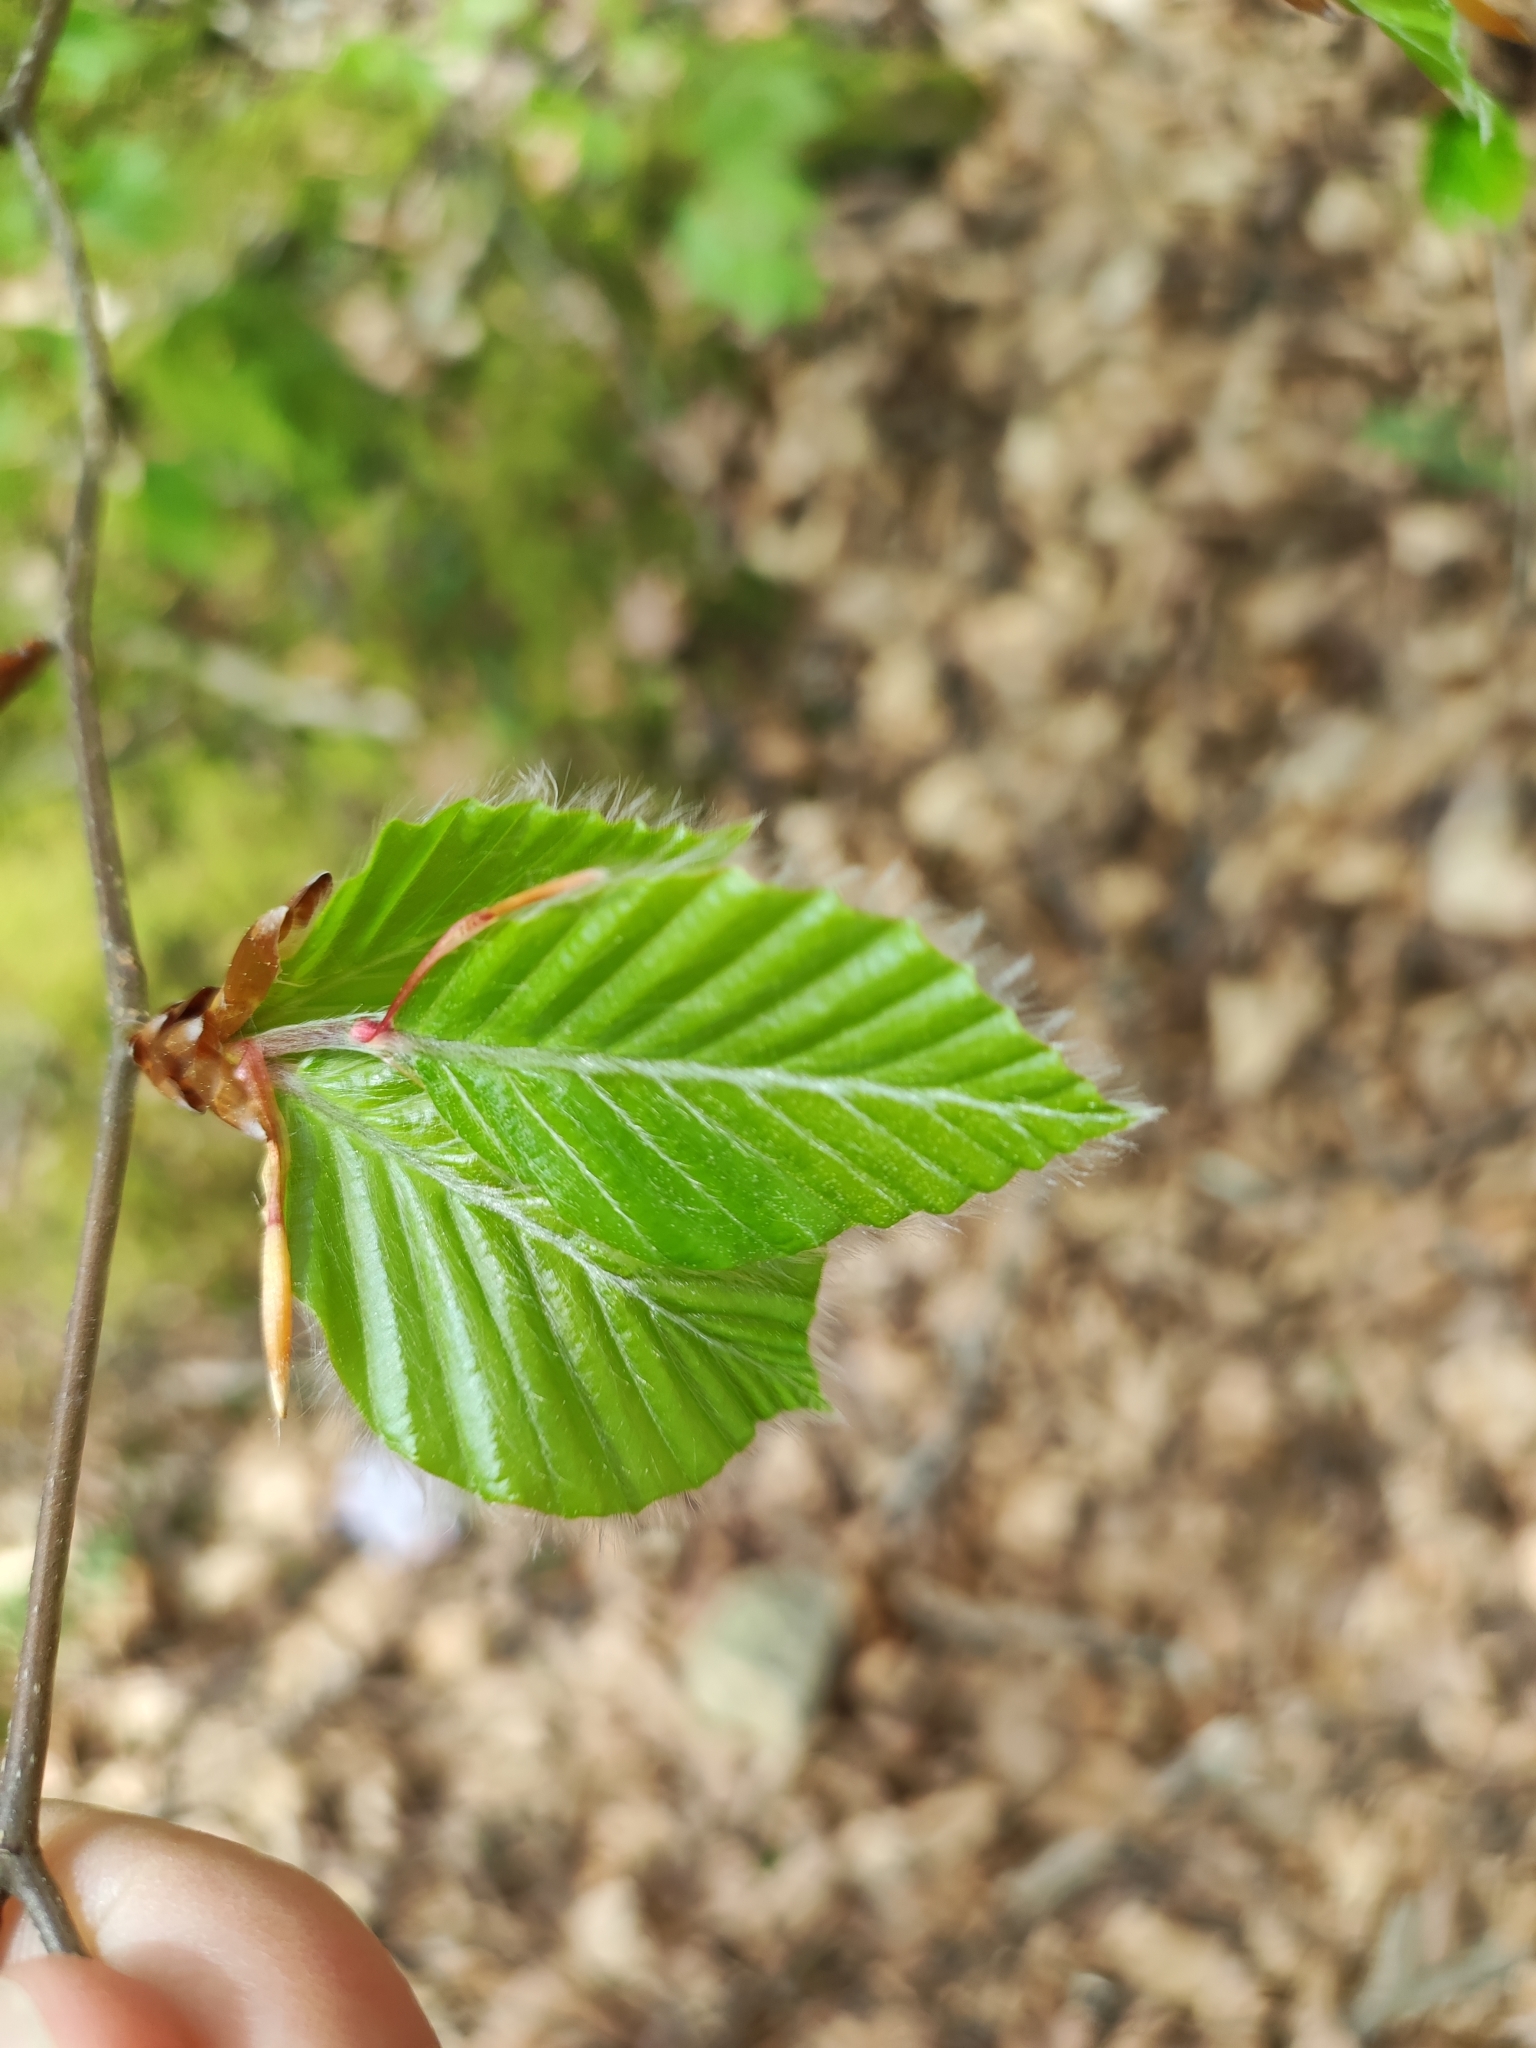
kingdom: Plantae
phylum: Tracheophyta
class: Magnoliopsida
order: Fagales
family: Fagaceae
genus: Fagus
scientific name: Fagus sylvatica
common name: Beech
